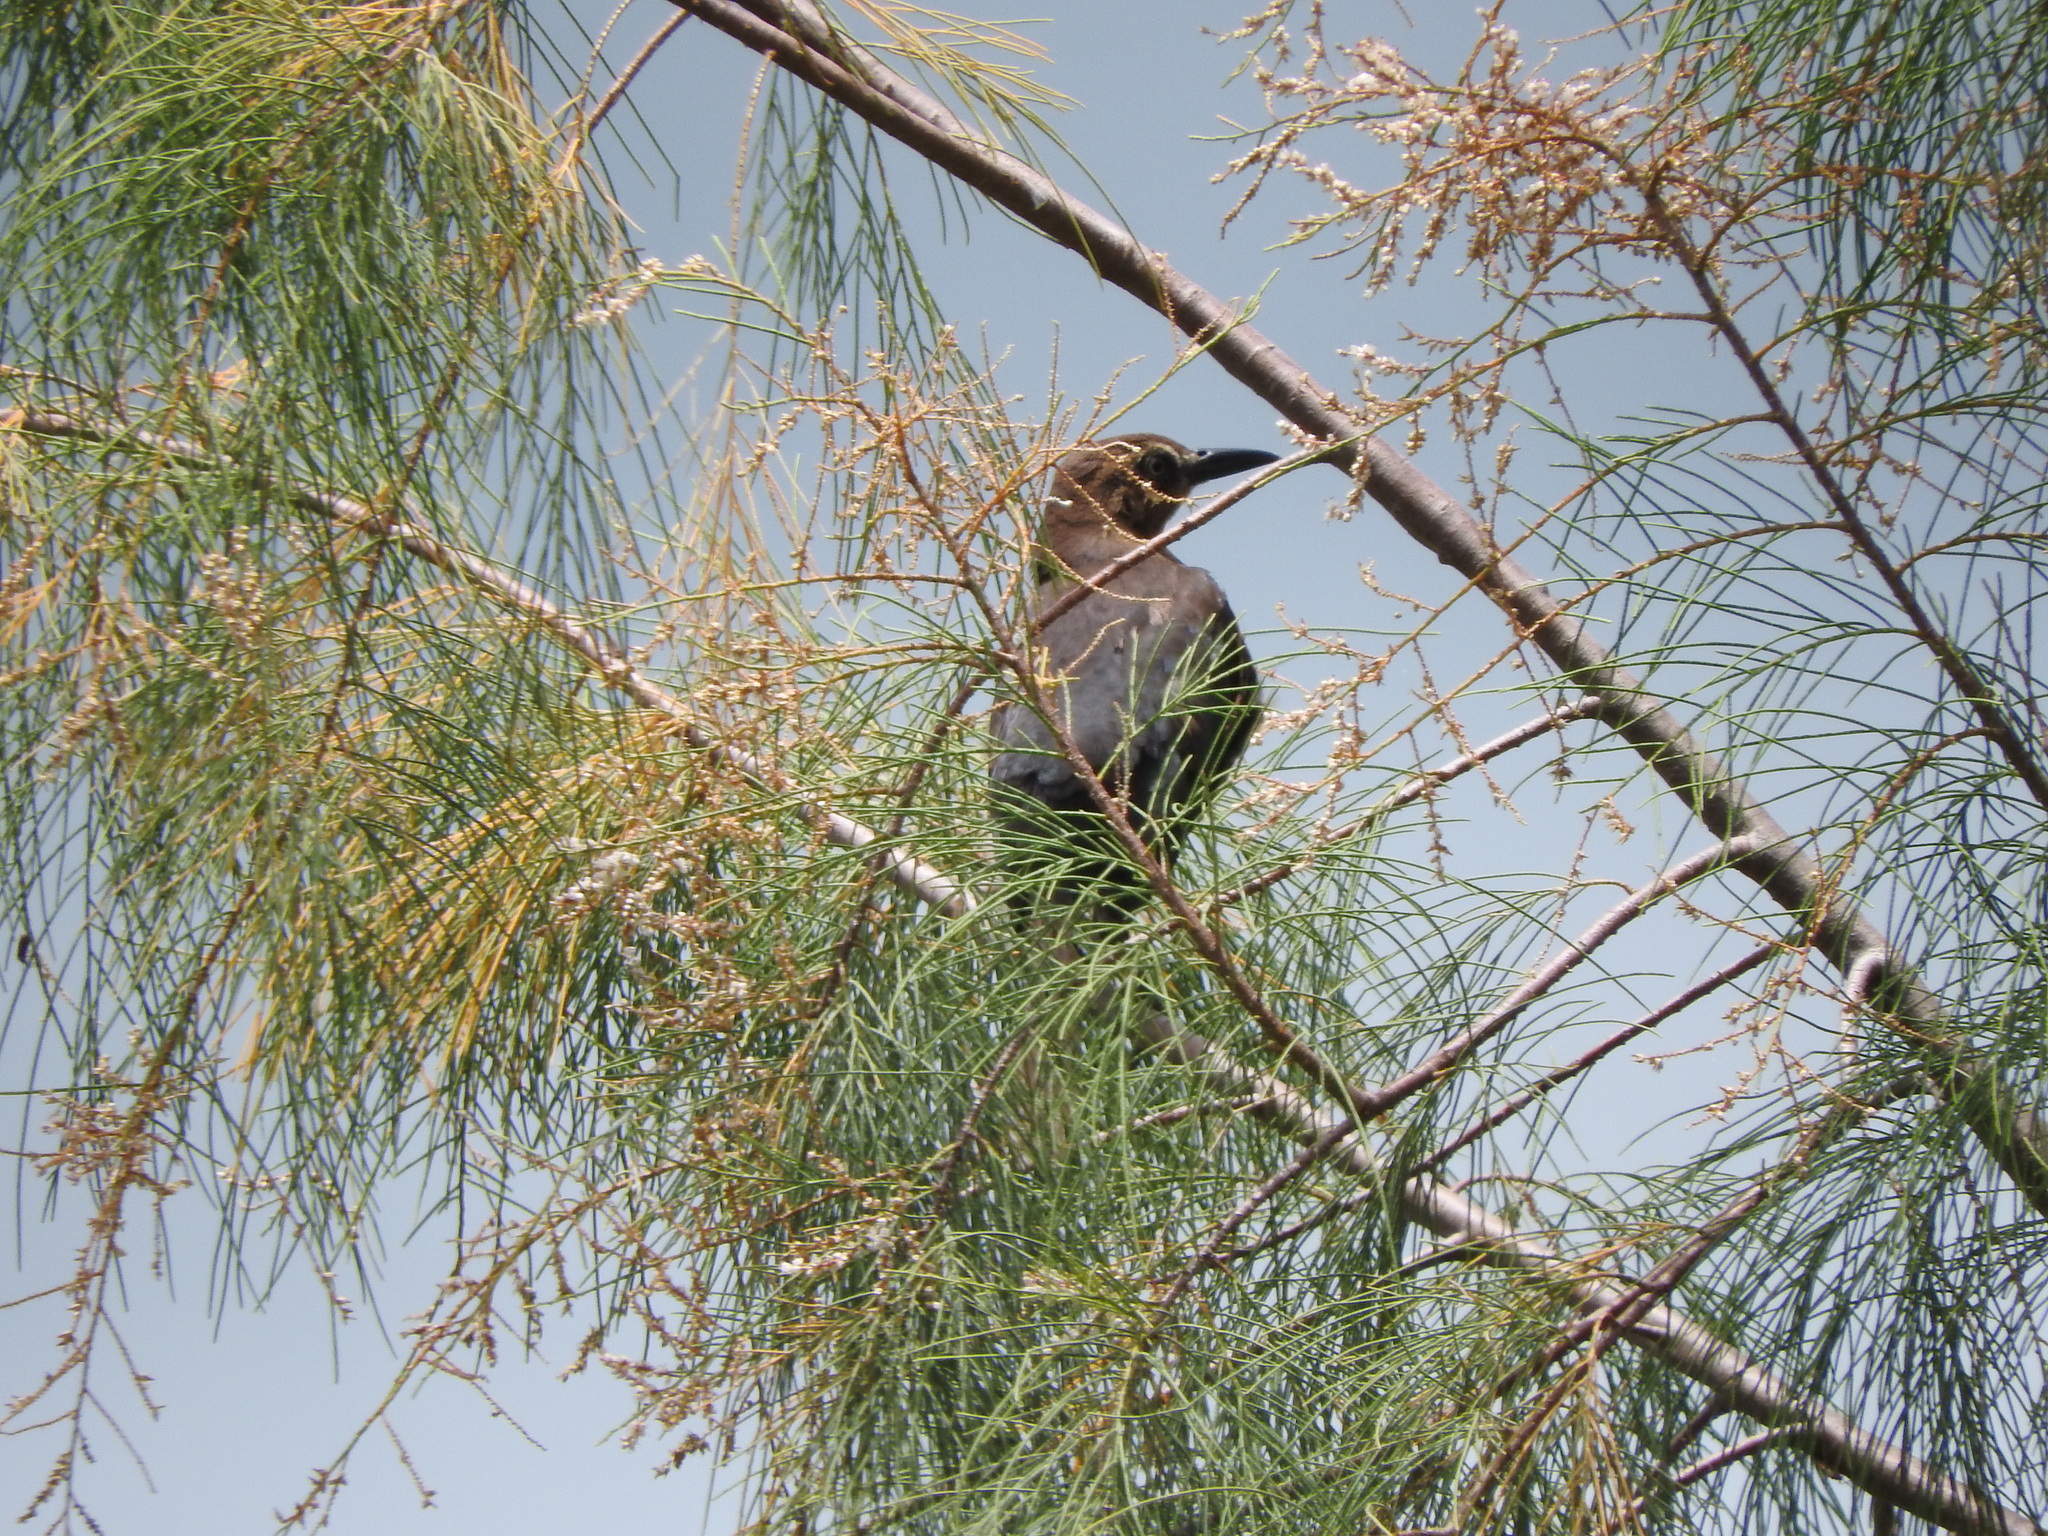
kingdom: Animalia
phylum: Chordata
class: Aves
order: Passeriformes
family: Icteridae
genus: Quiscalus
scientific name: Quiscalus mexicanus
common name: Great-tailed grackle
